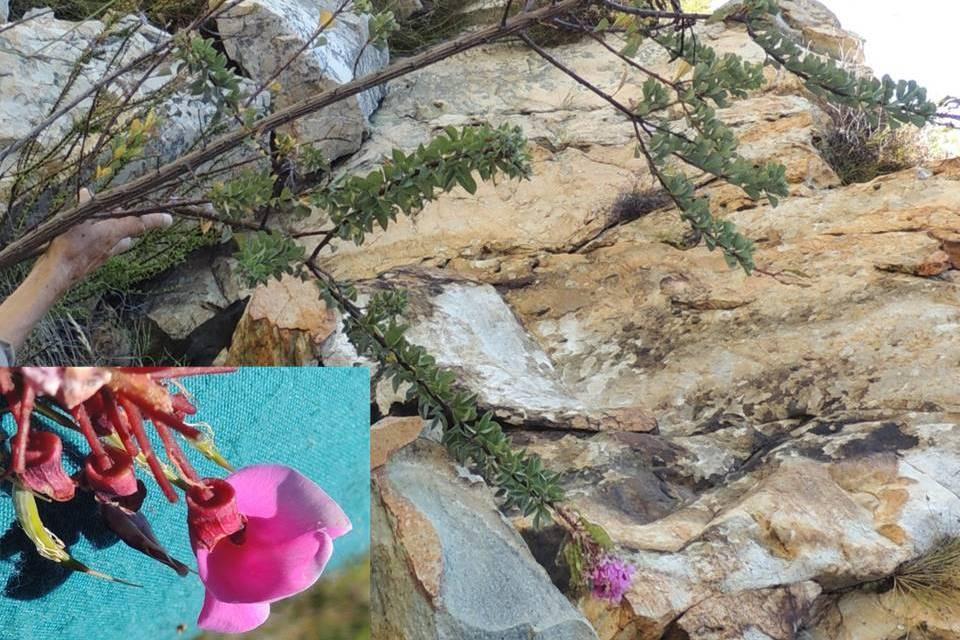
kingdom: Plantae
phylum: Tracheophyta
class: Magnoliopsida
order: Fabales
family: Fabaceae
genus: Hypocalyptus
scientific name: Hypocalyptus sophoroides
